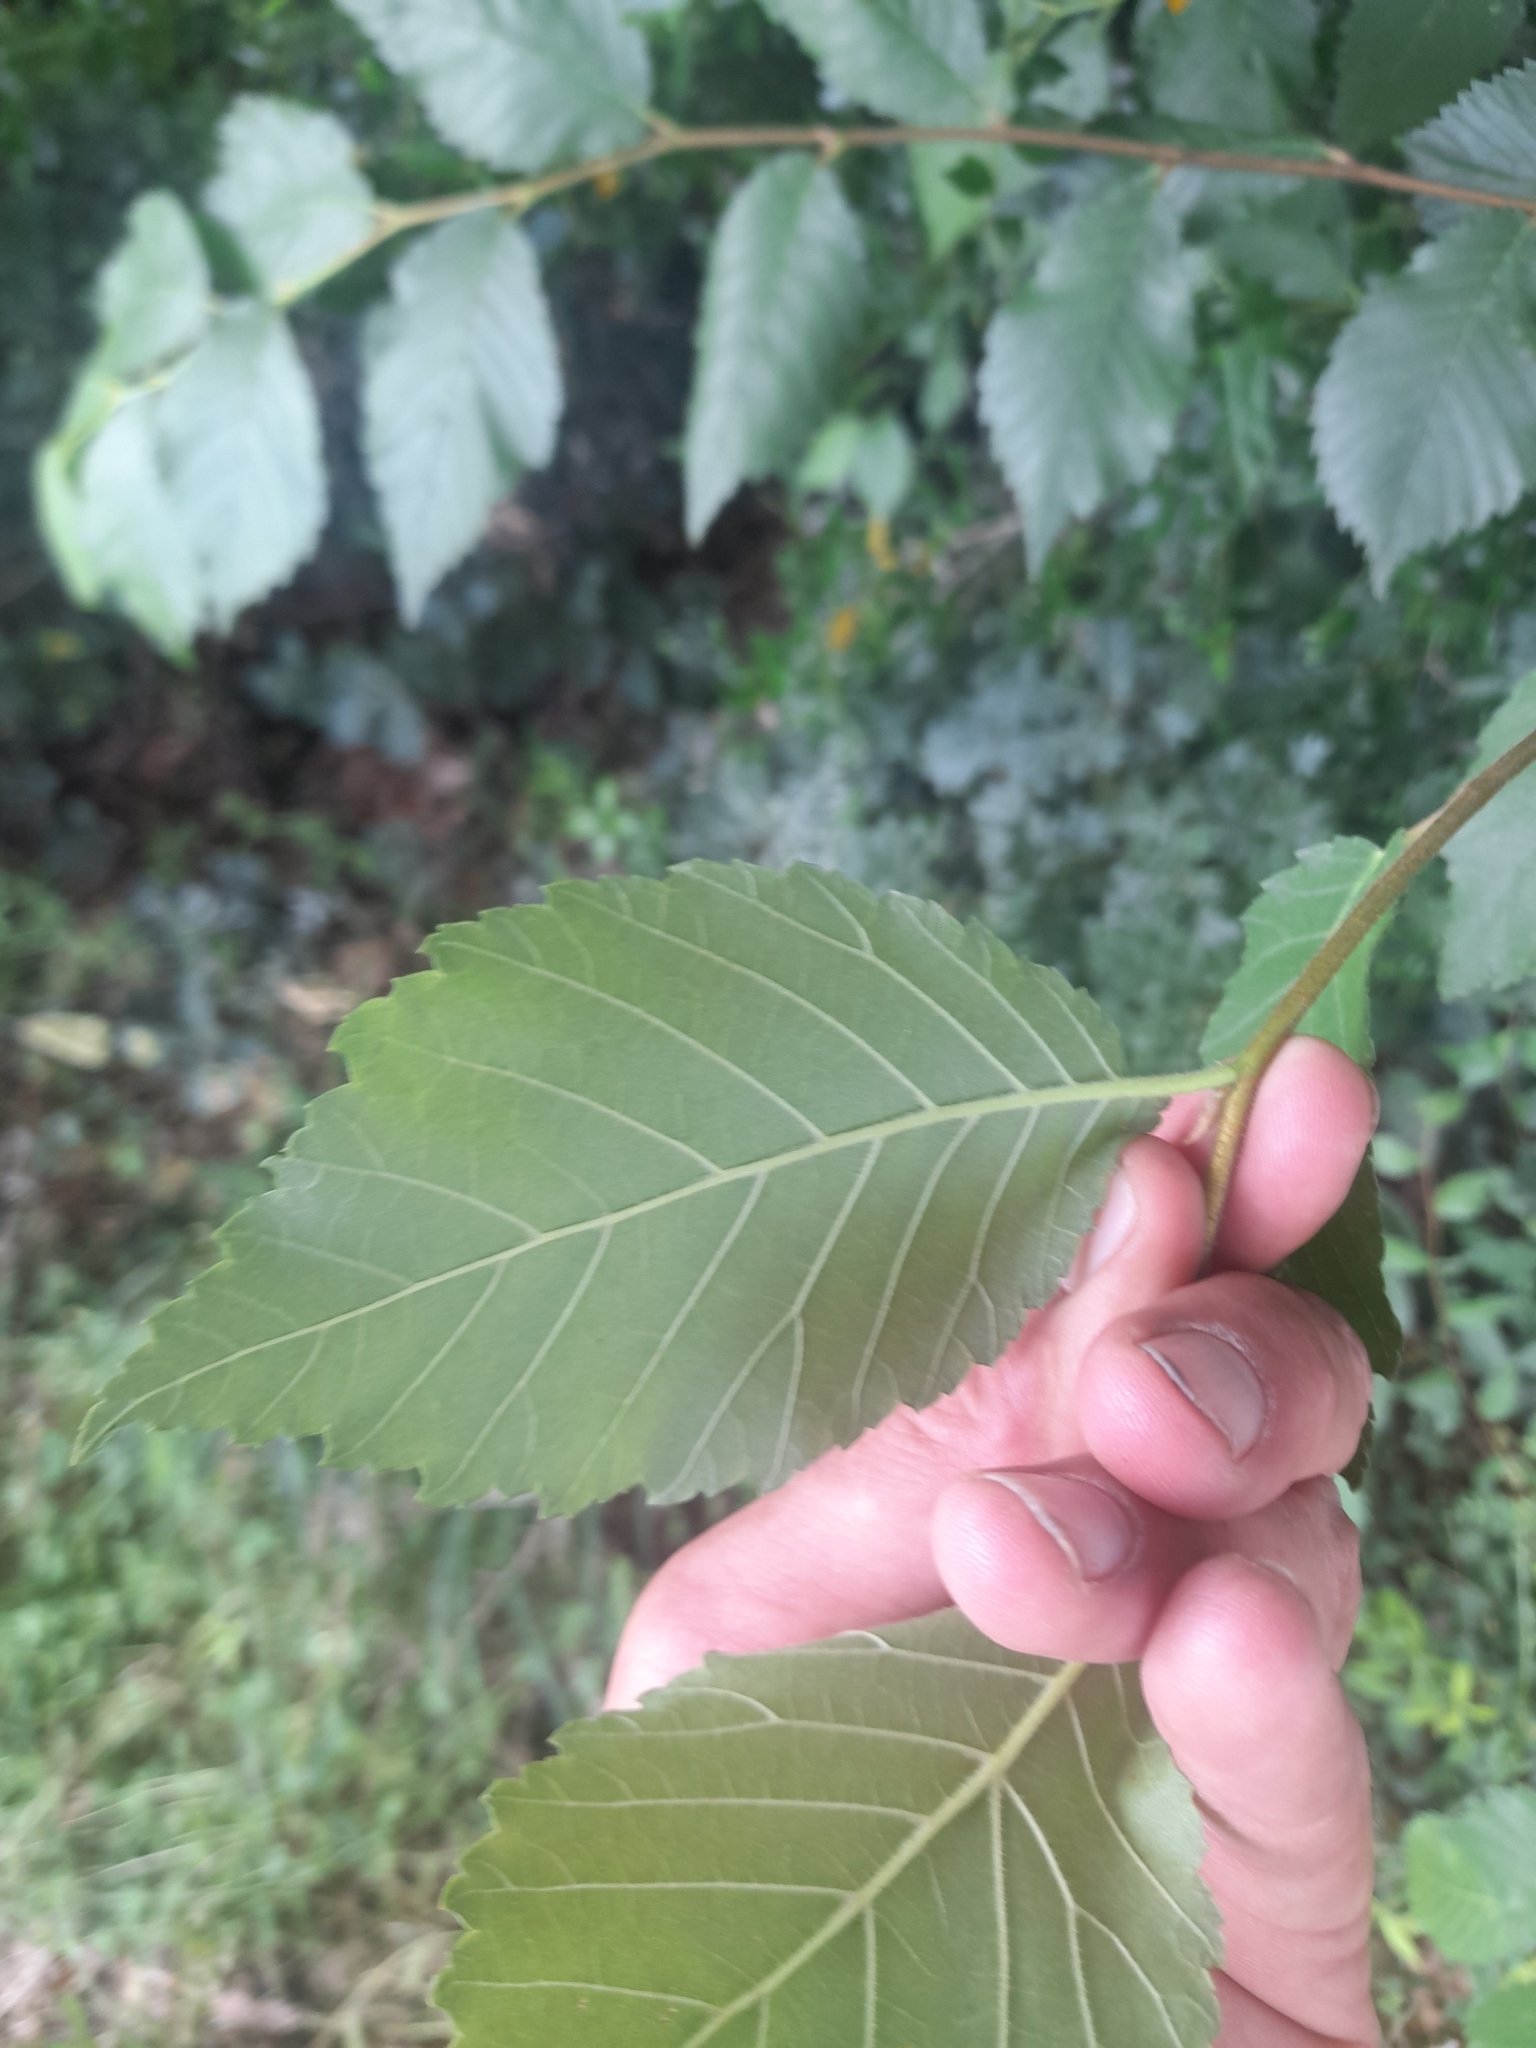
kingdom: Plantae
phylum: Tracheophyta
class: Magnoliopsida
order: Rosales
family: Ulmaceae
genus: Ulmus
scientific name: Ulmus minor
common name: Small-leaved elm
